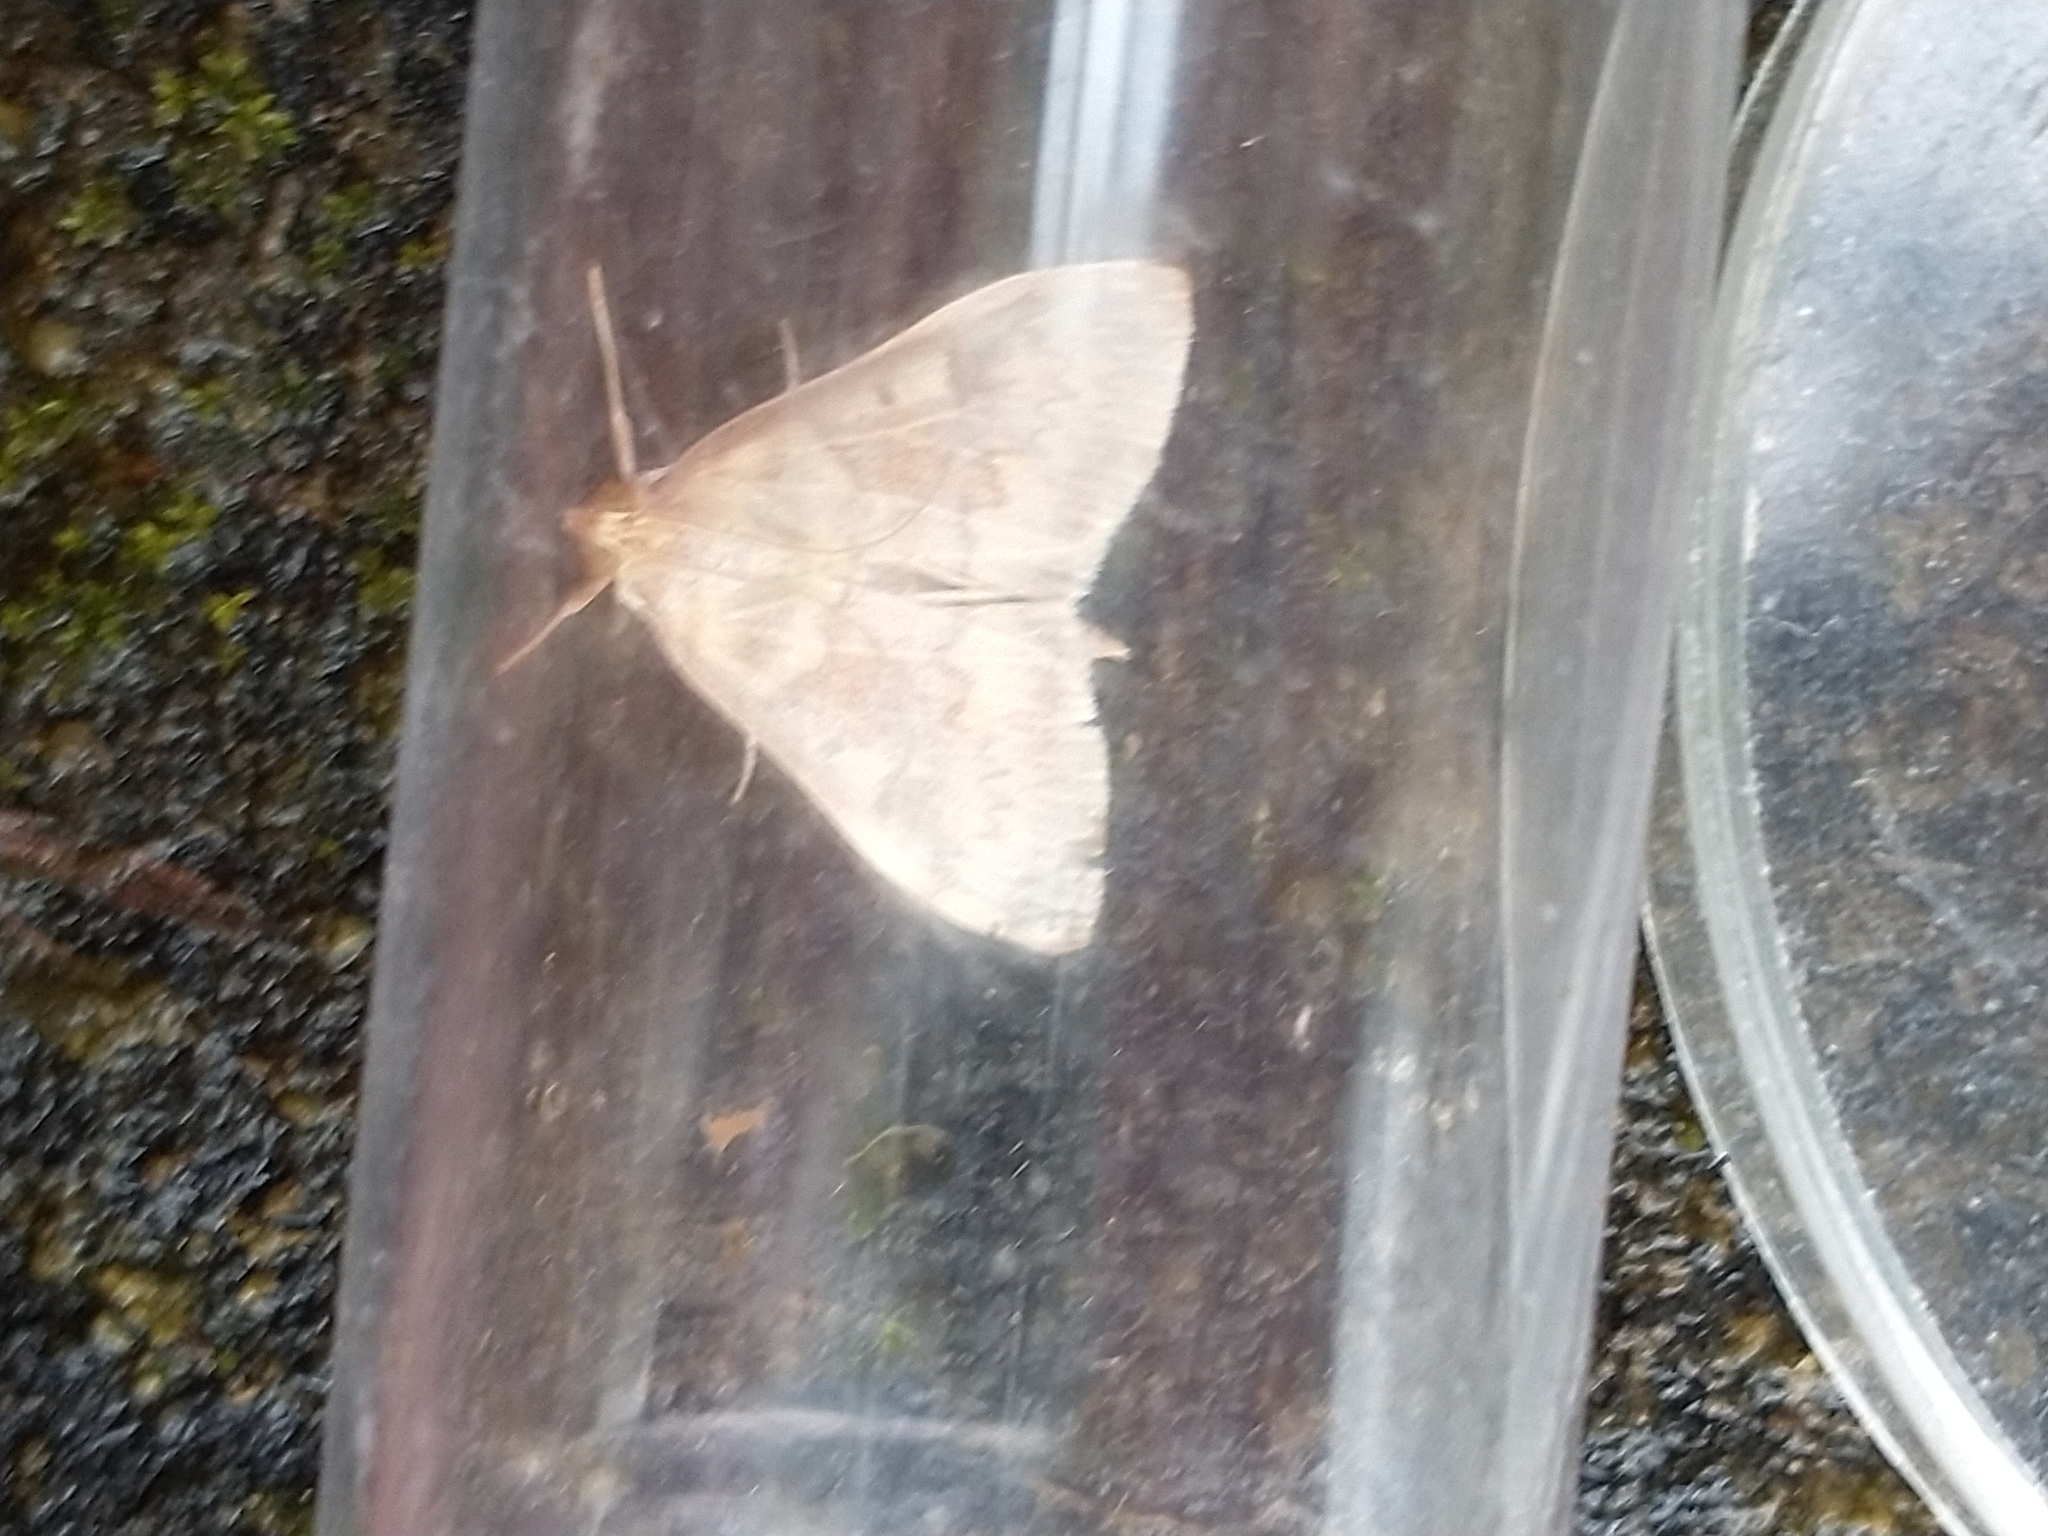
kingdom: Animalia
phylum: Arthropoda
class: Insecta
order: Lepidoptera
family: Crambidae
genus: Ostrinia
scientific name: Ostrinia nubilalis
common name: European corn borer
